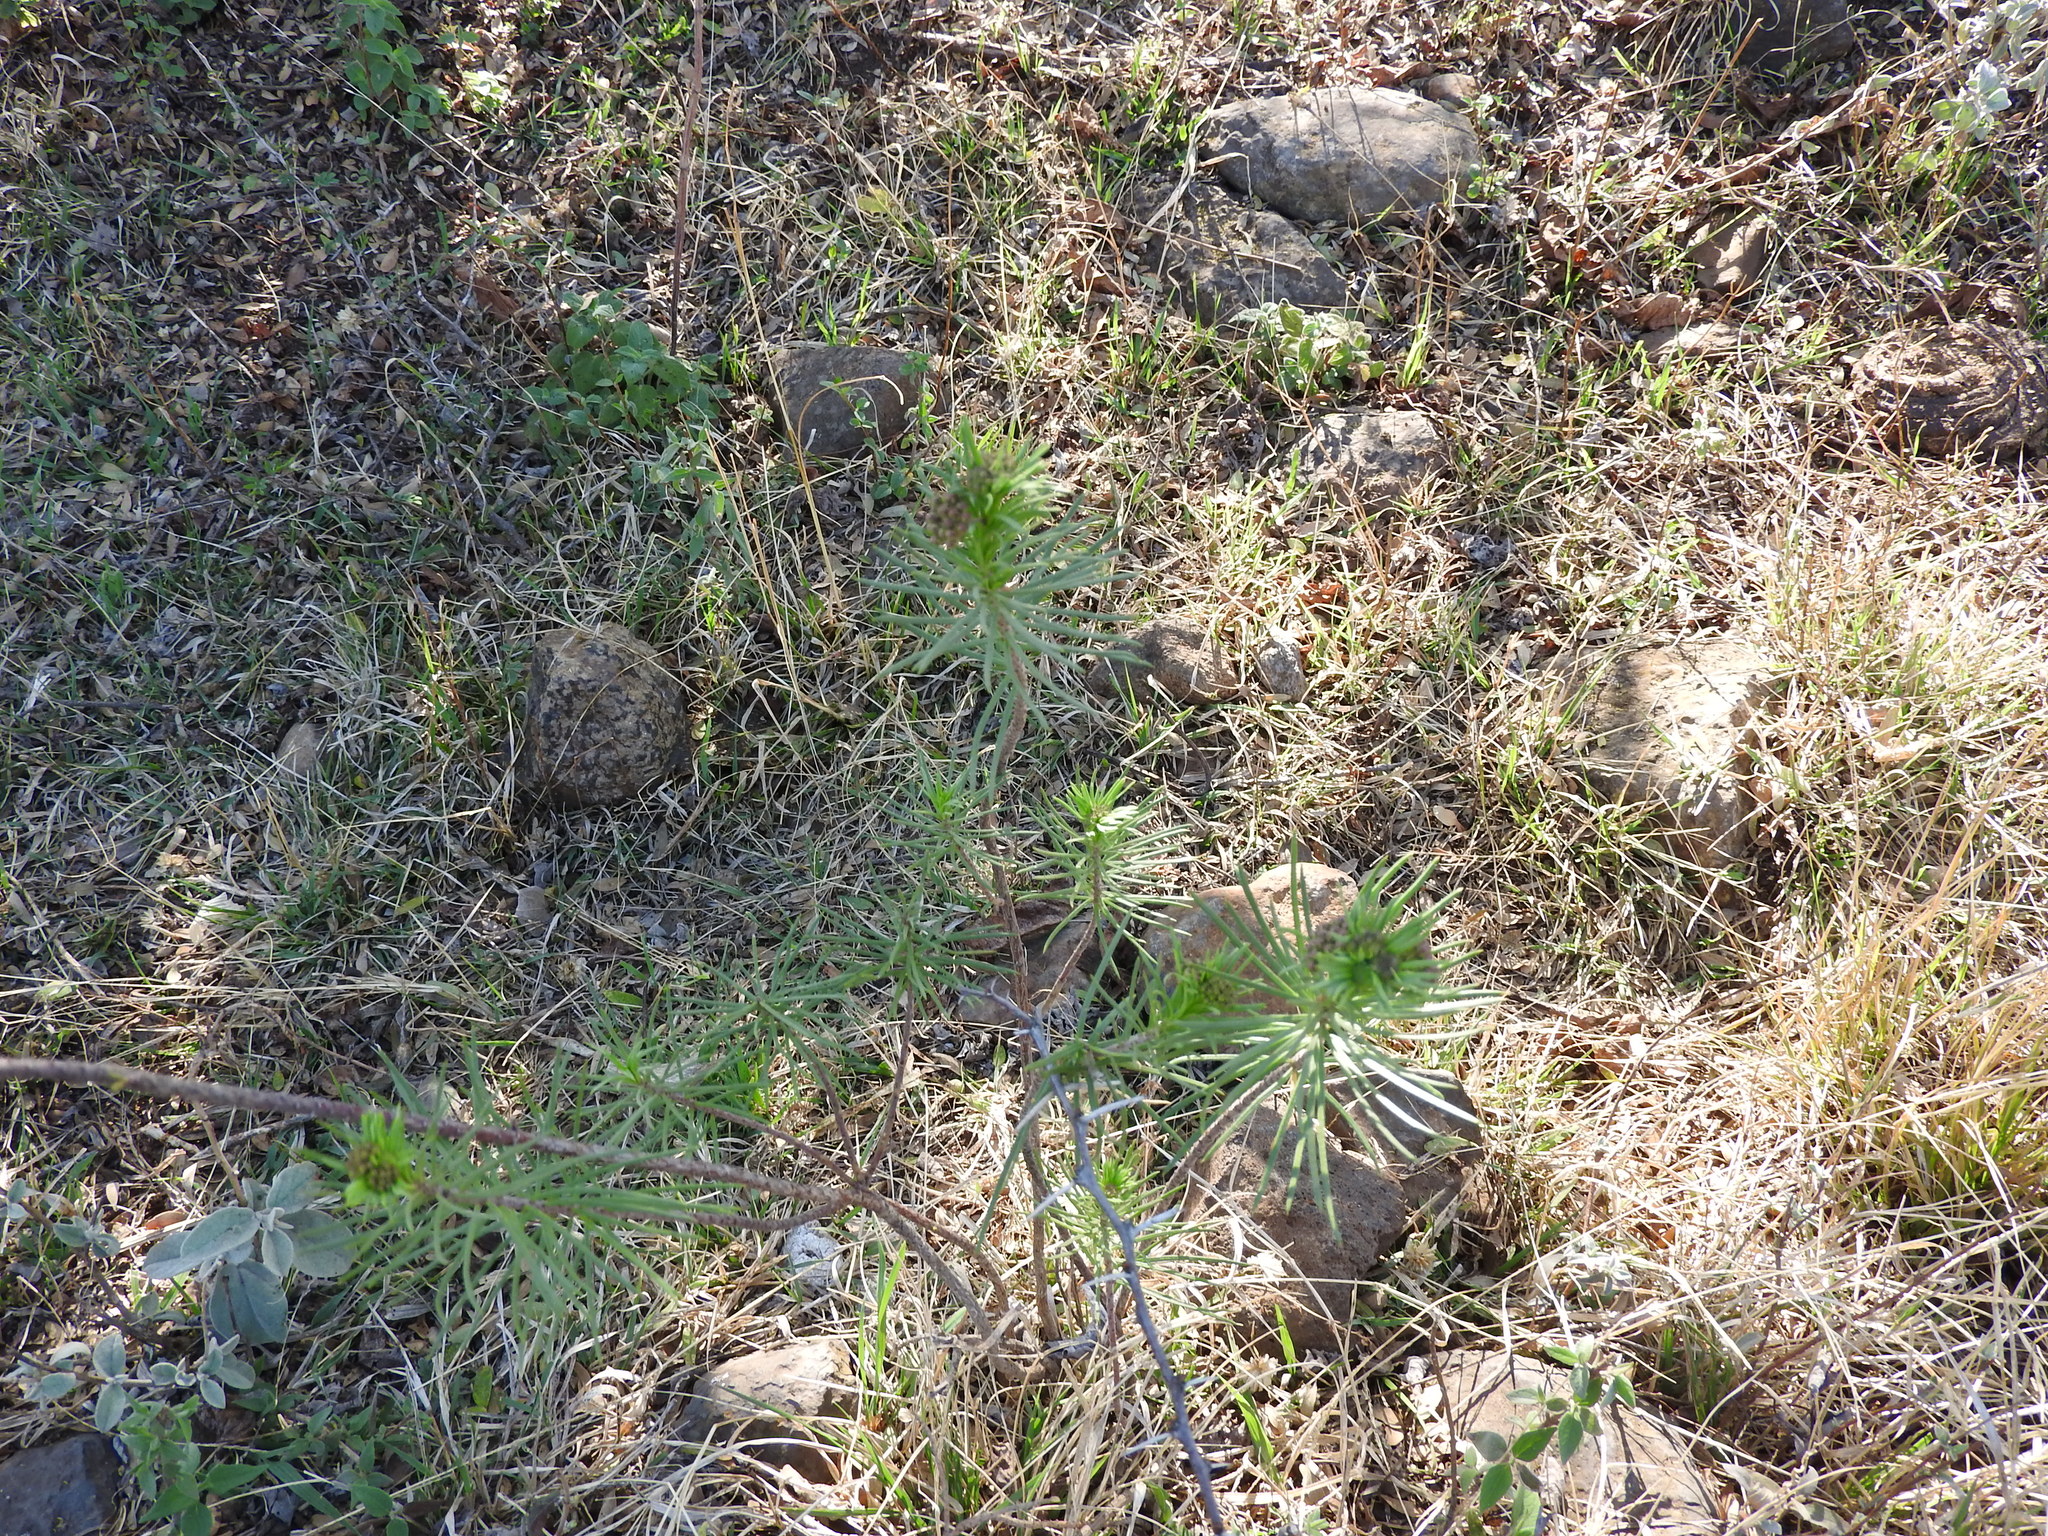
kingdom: Plantae
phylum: Tracheophyta
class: Magnoliopsida
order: Gentianales
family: Apocynaceae
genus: Asclepias
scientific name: Asclepias linaria
